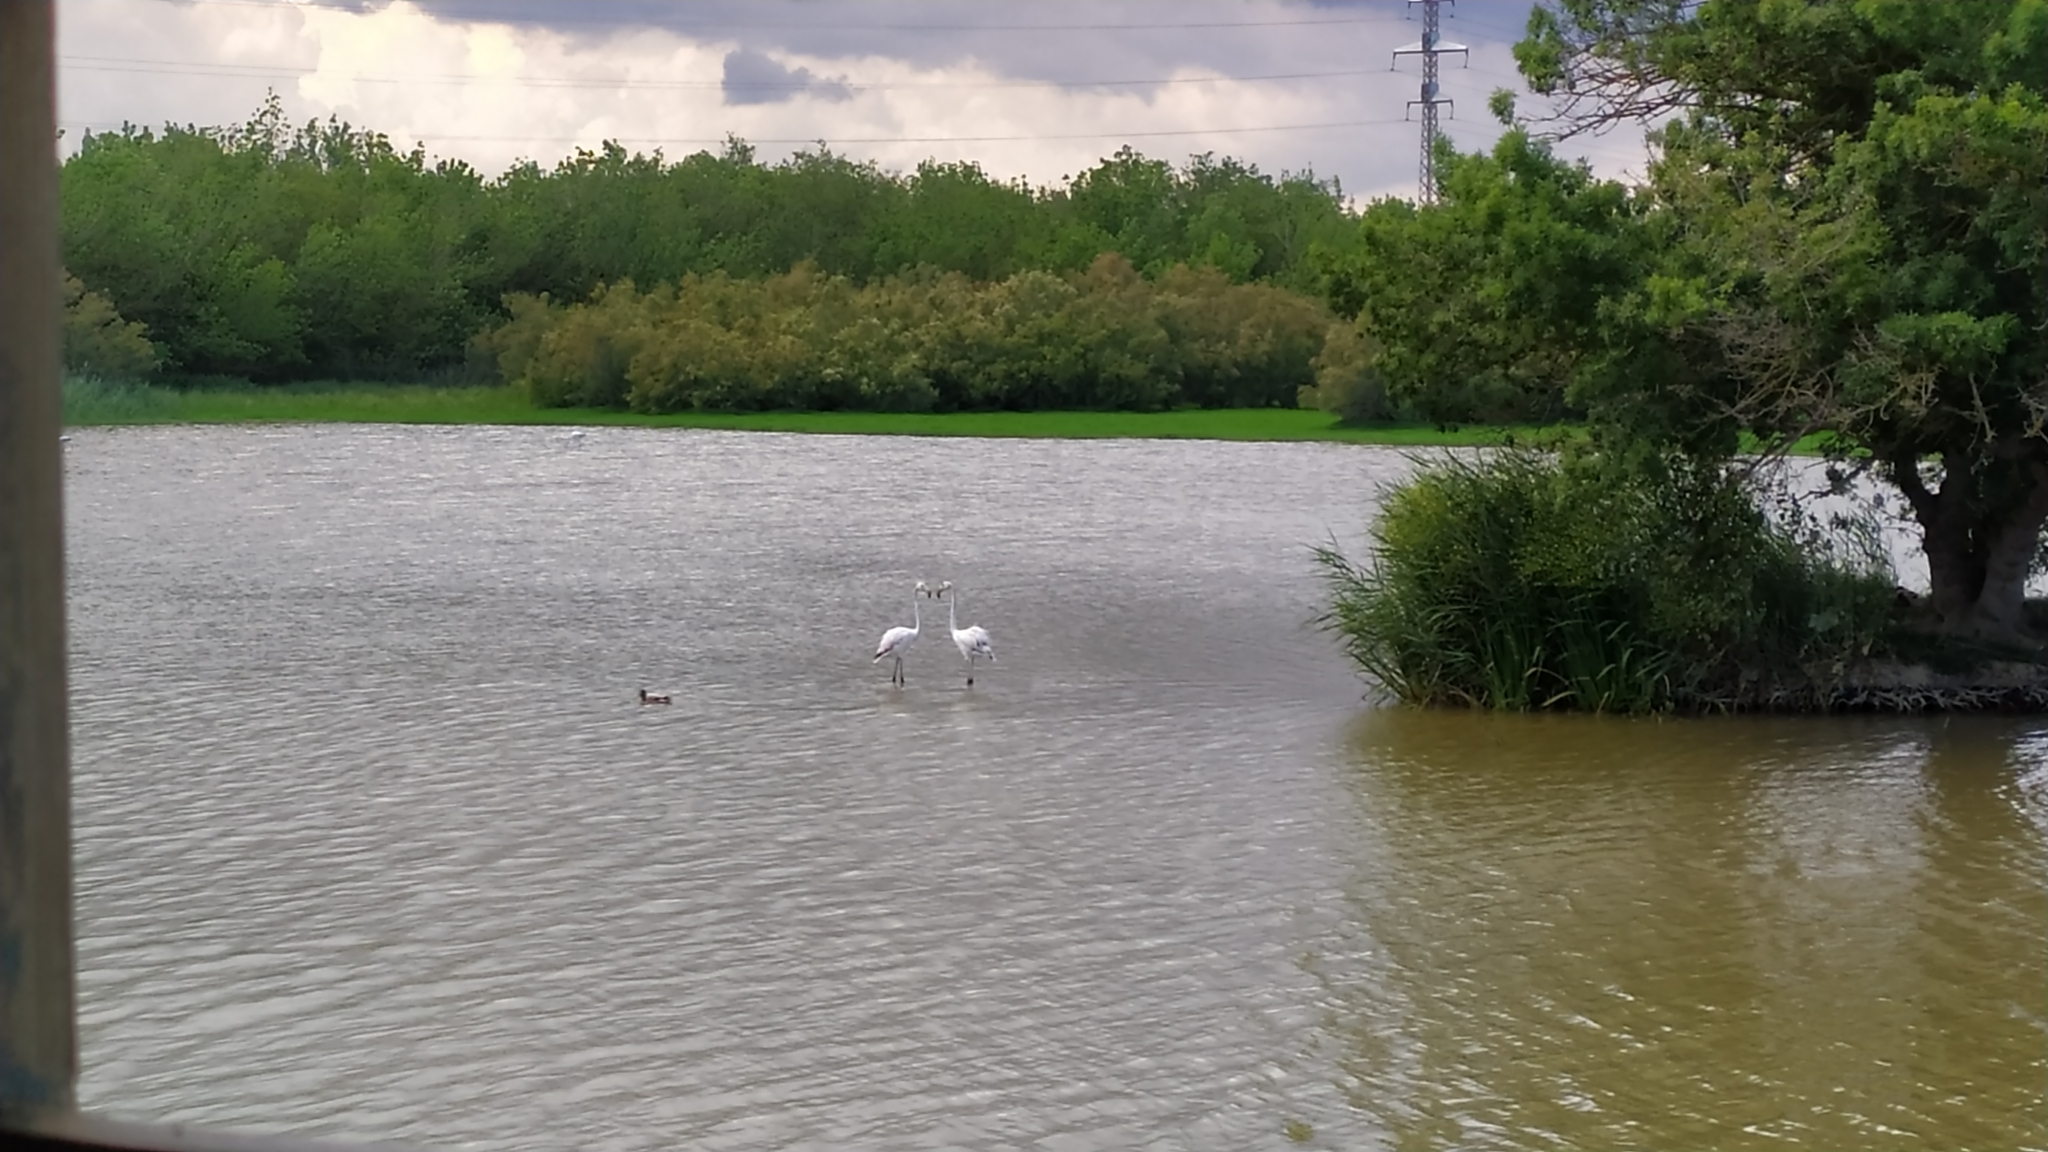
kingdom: Animalia
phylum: Chordata
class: Aves
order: Phoenicopteriformes
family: Phoenicopteridae
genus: Phoenicopterus
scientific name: Phoenicopterus roseus
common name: Greater flamingo
